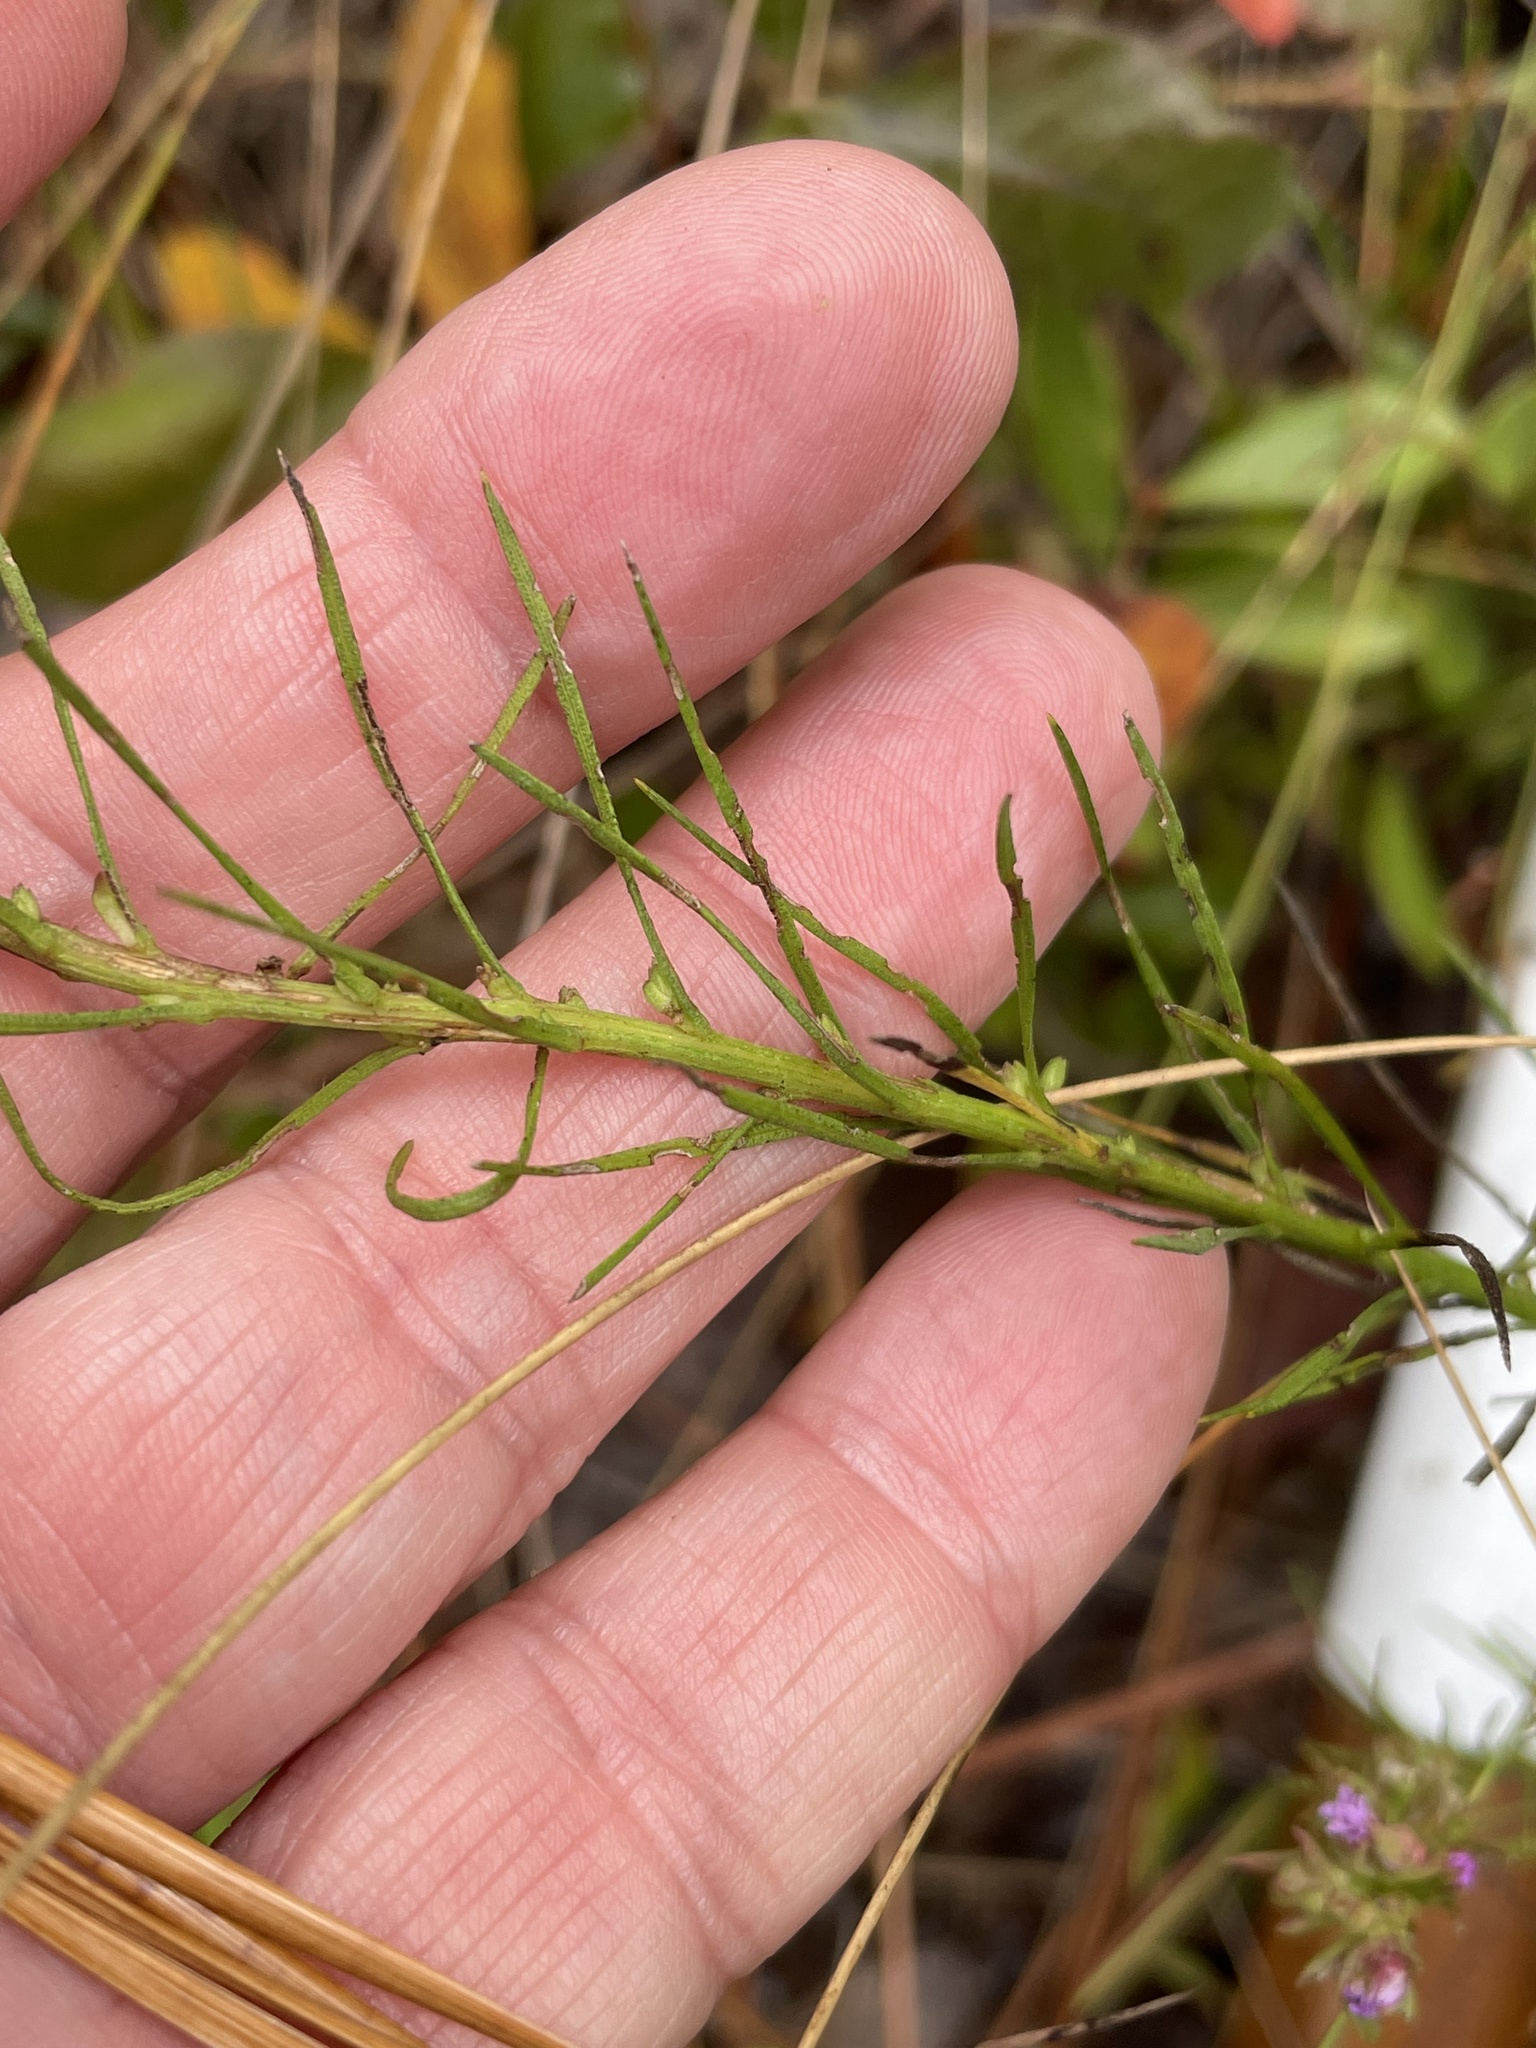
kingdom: Plantae
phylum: Tracheophyta
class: Magnoliopsida
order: Asterales
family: Asteraceae
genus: Liatris
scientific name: Liatris cokeri
